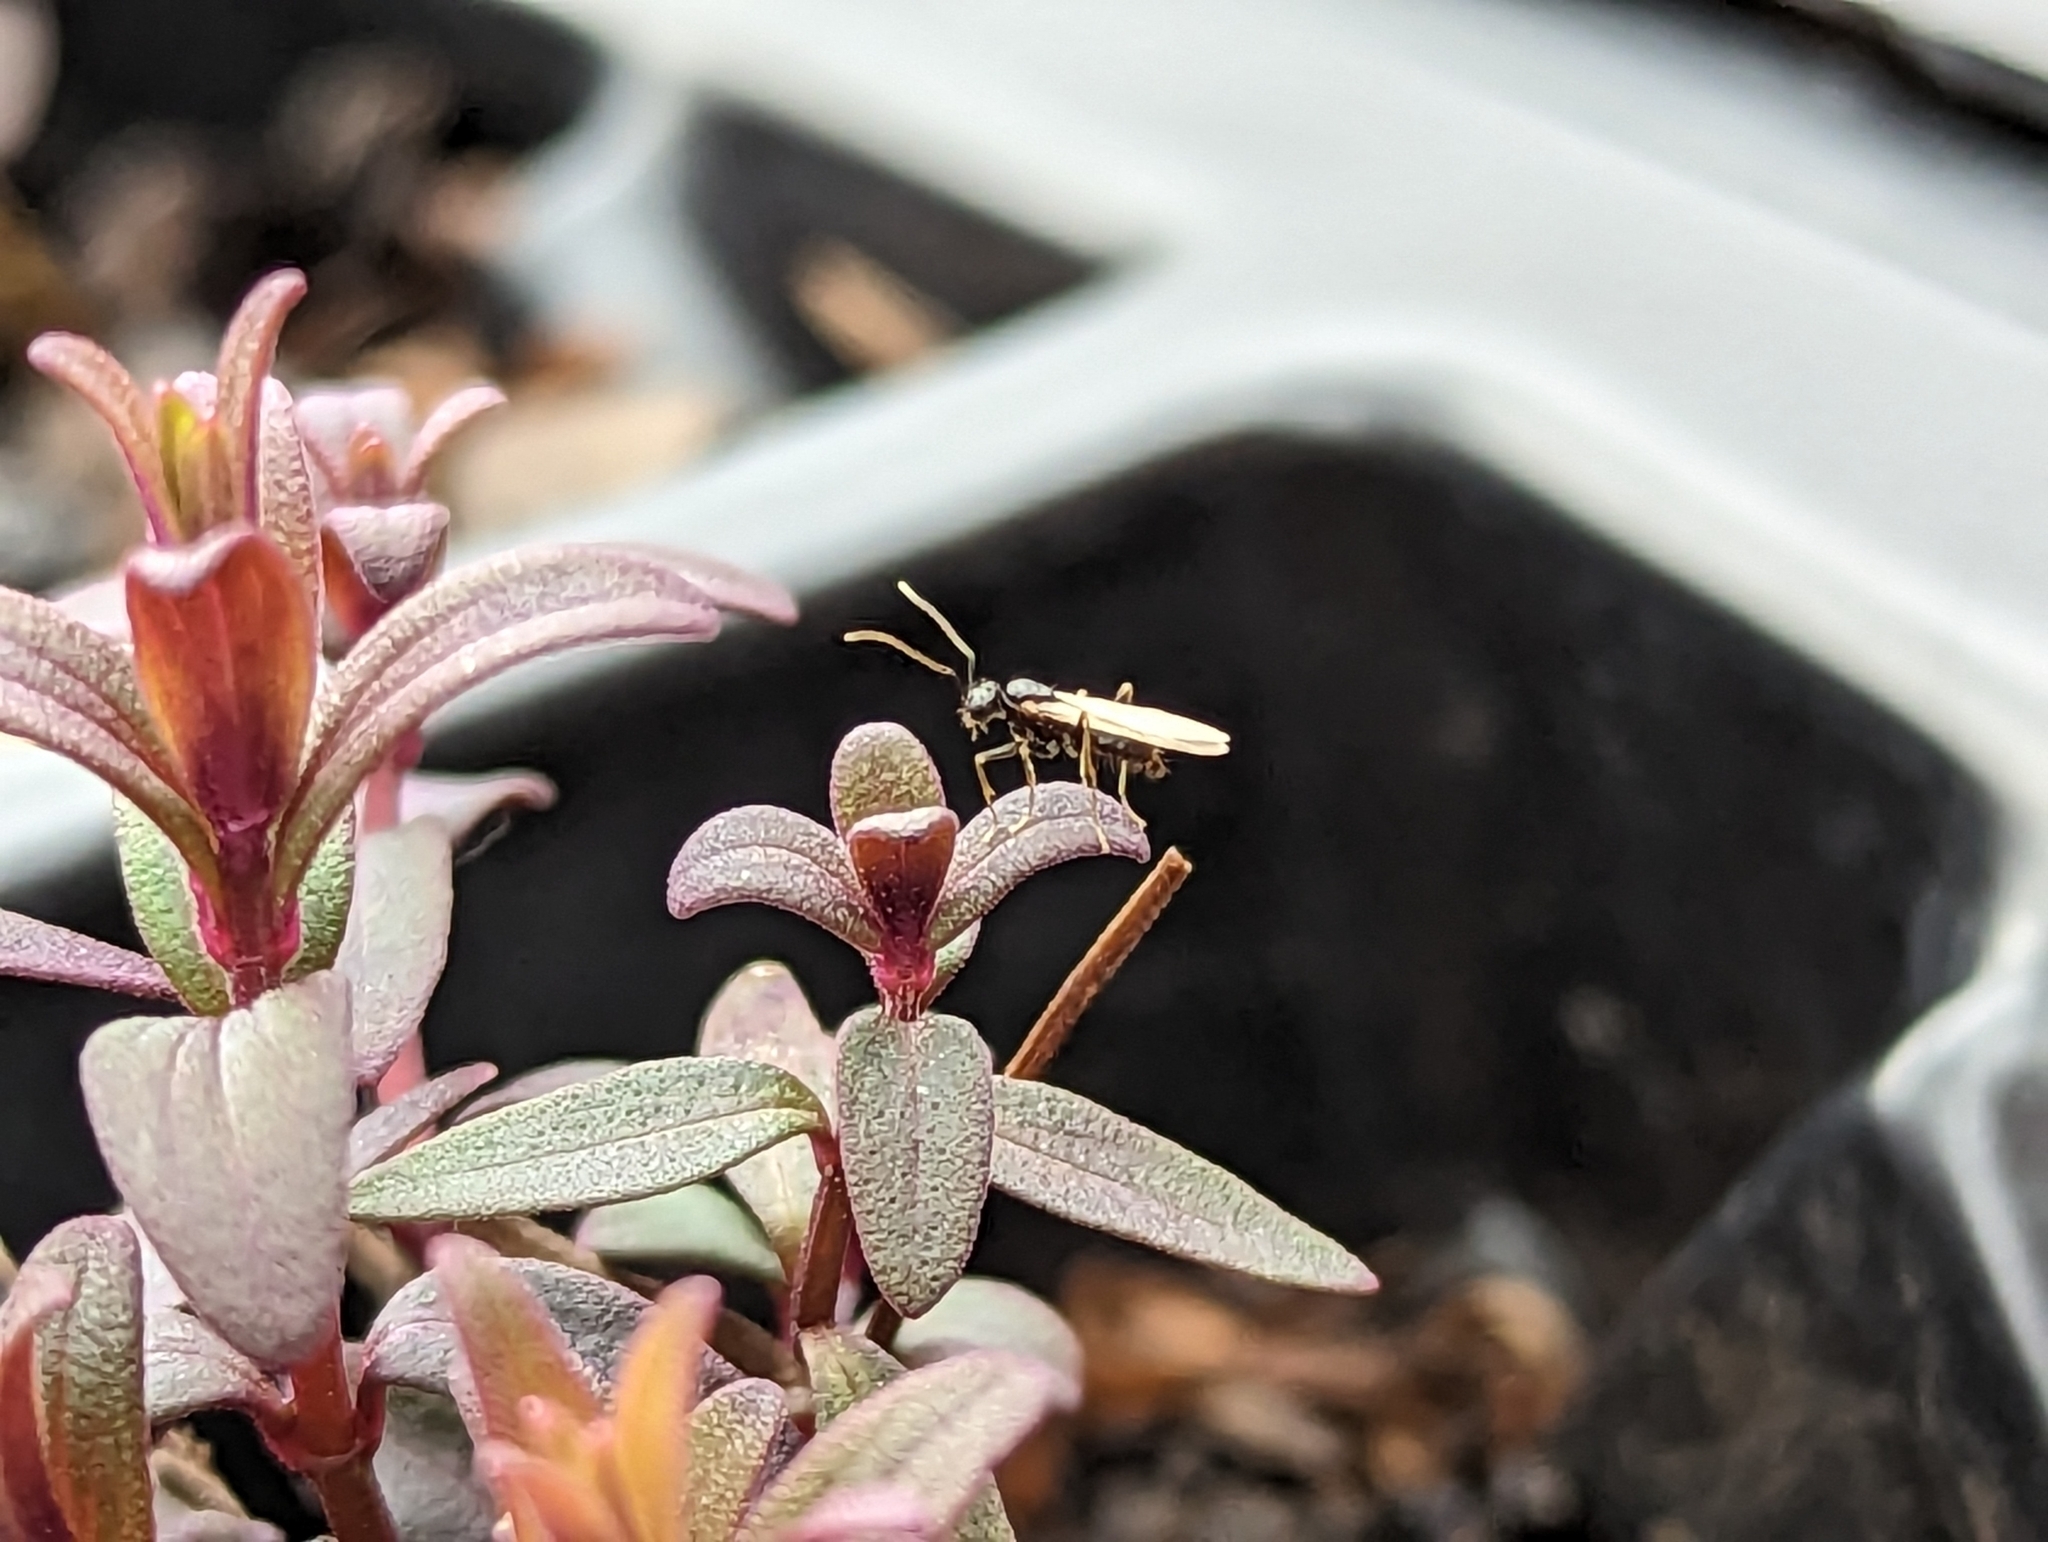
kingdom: Animalia
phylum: Arthropoda
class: Insecta
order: Hymenoptera
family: Formicidae
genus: Prenolepis
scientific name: Prenolepis imparis
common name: Small honey ant
